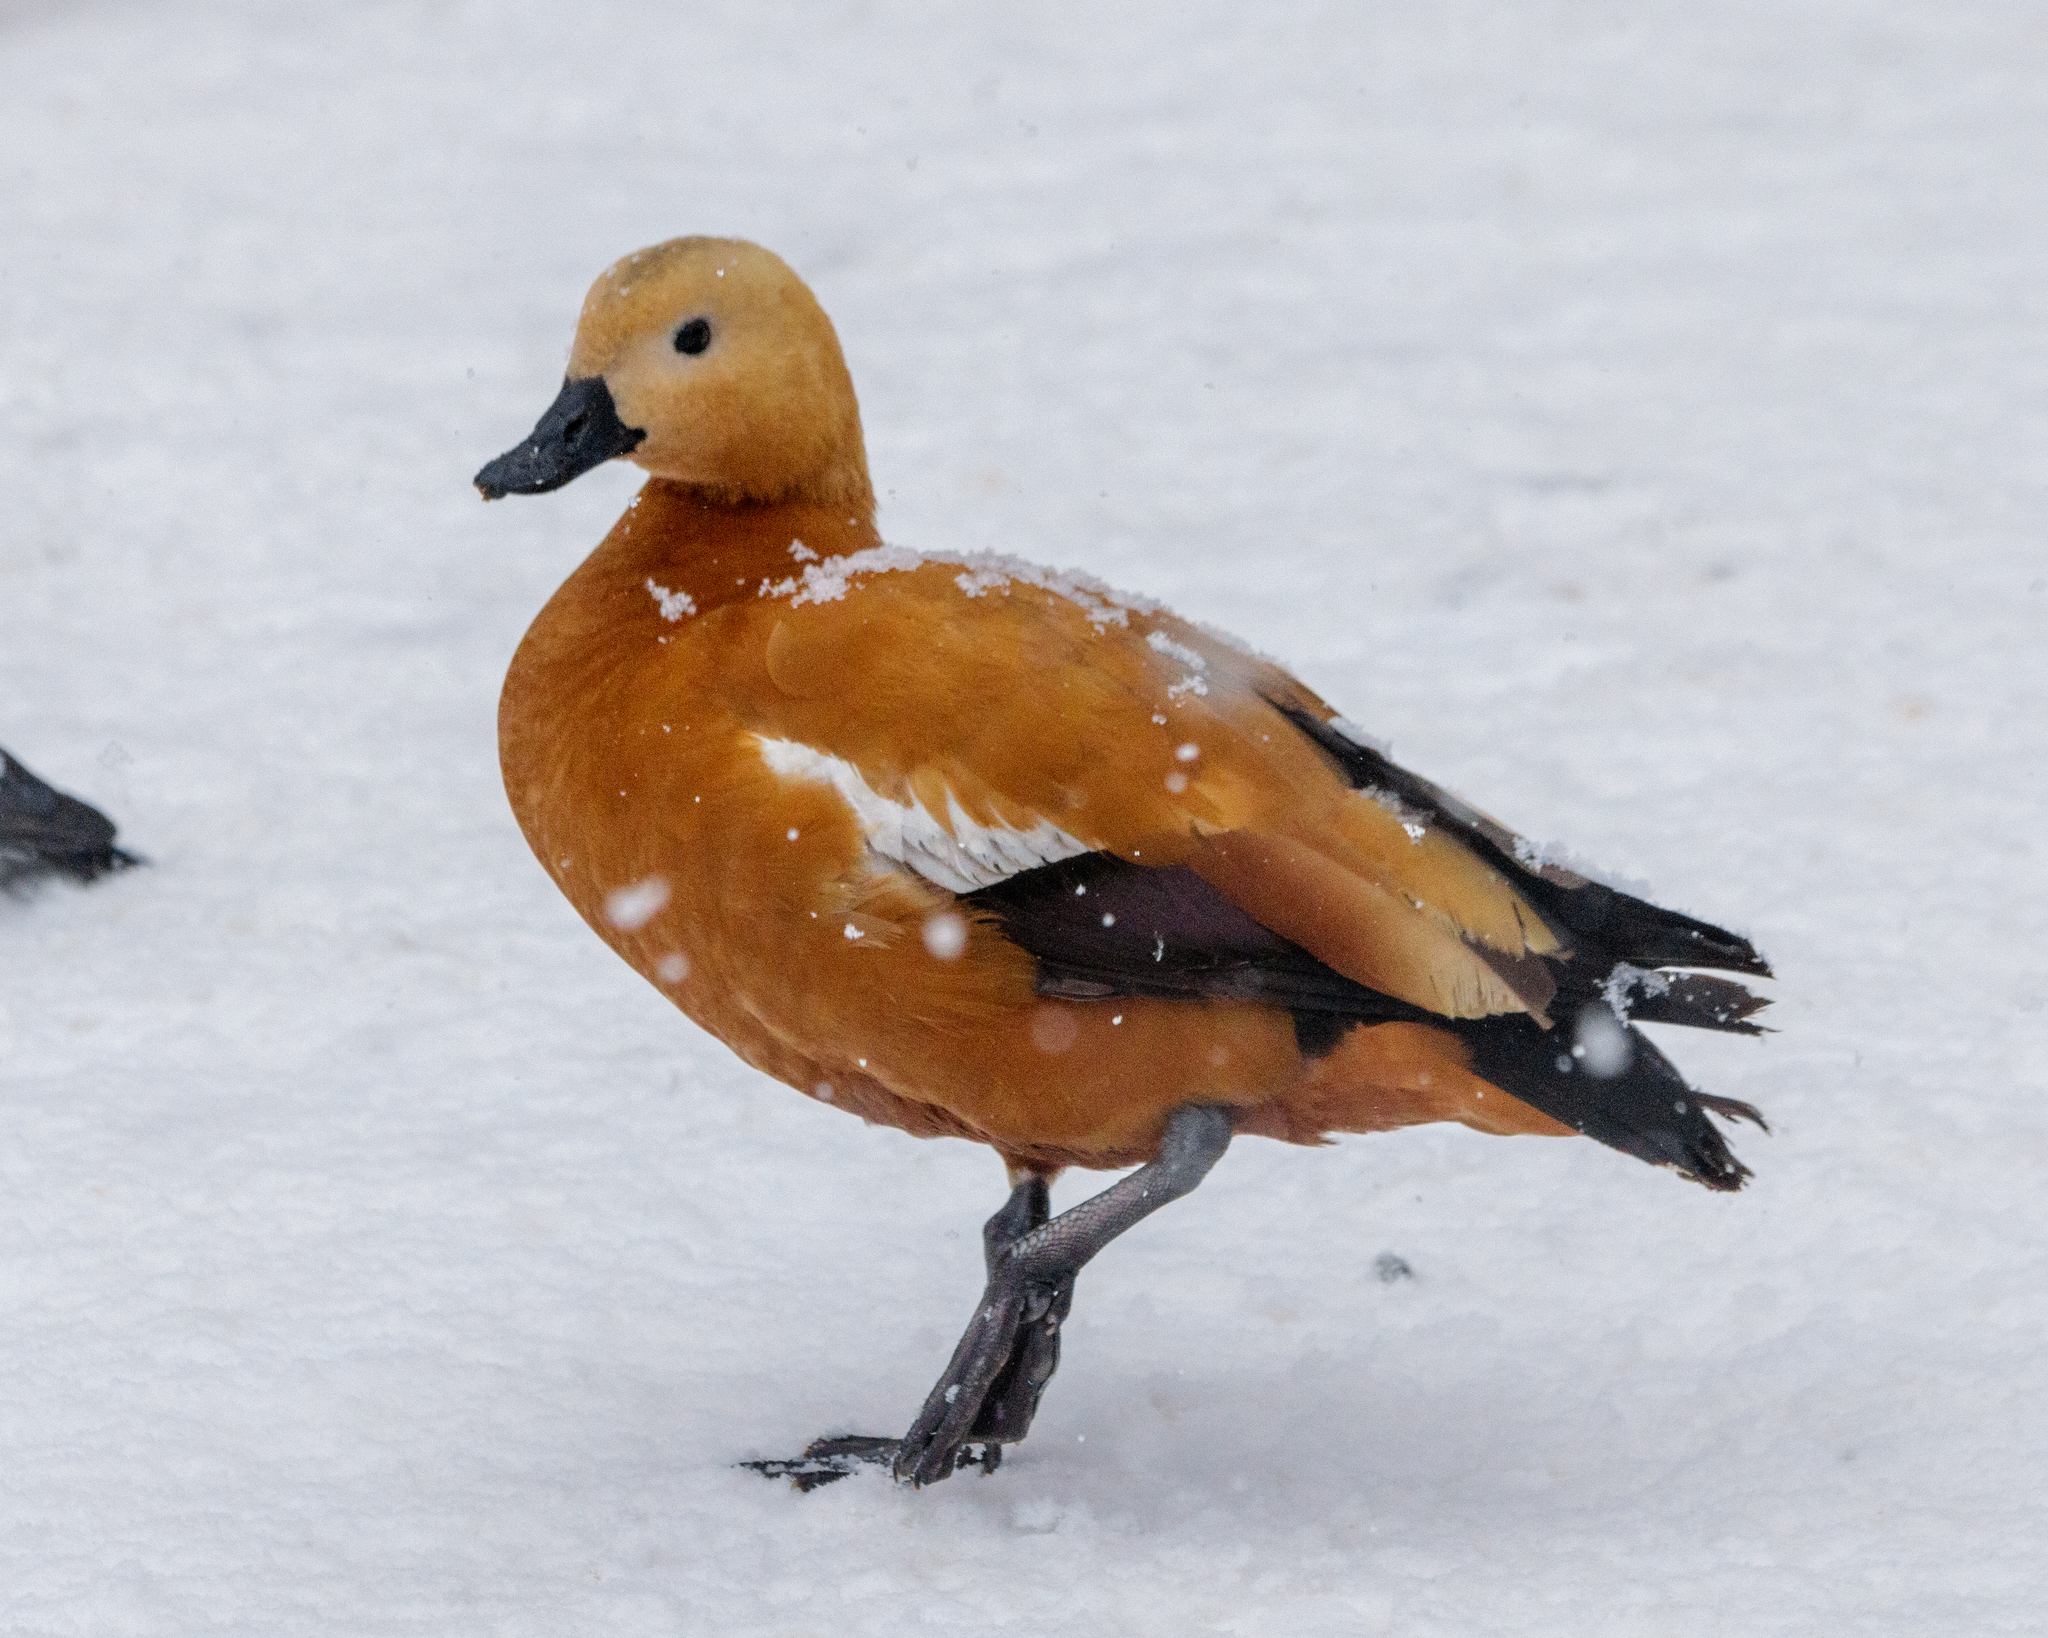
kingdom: Animalia
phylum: Chordata
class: Aves
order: Anseriformes
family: Anatidae
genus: Tadorna
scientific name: Tadorna ferruginea
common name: Ruddy shelduck
